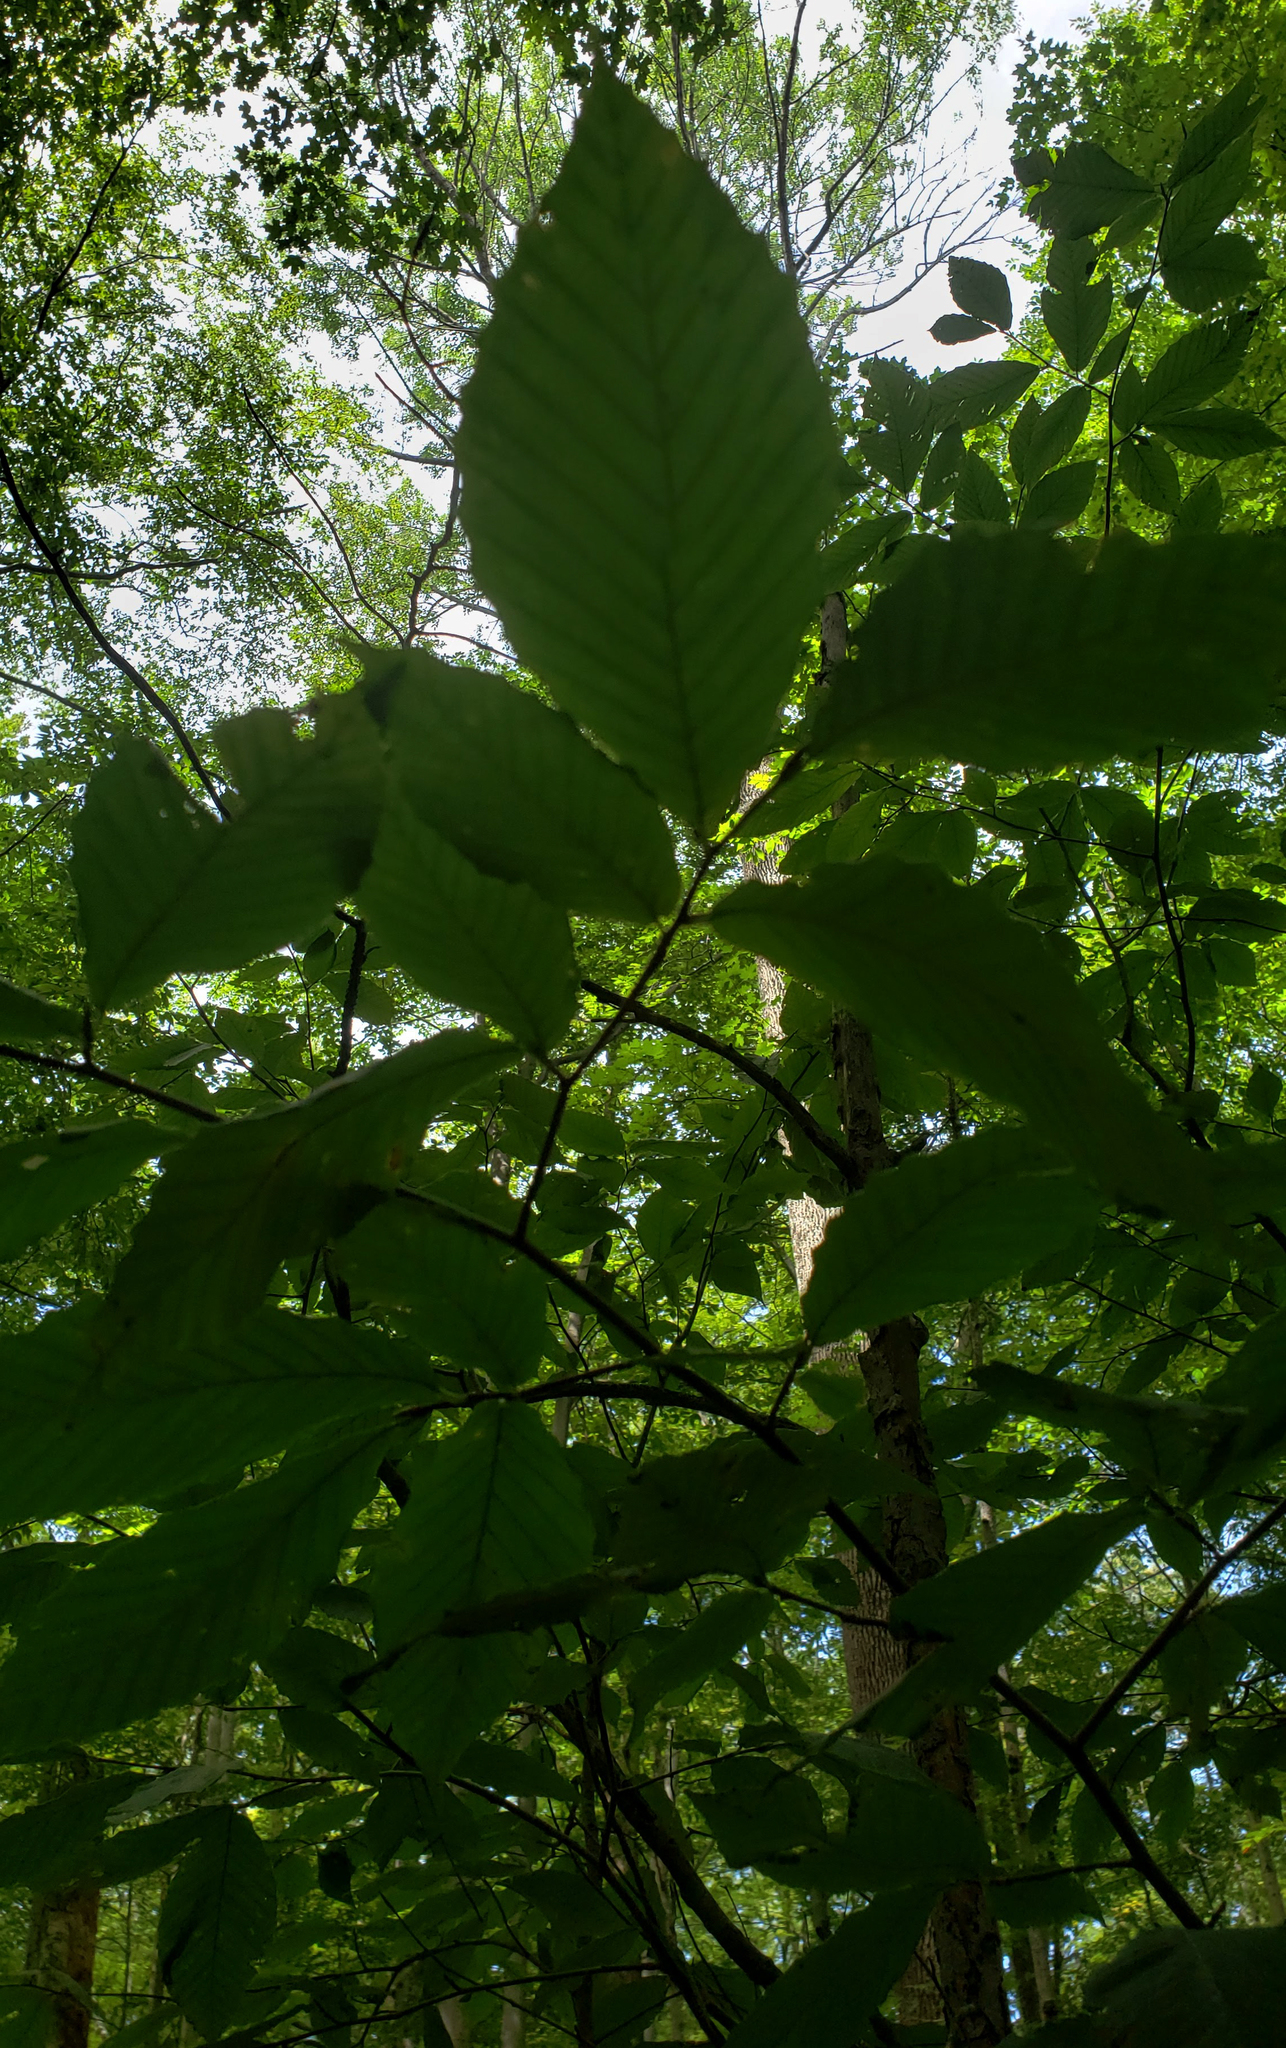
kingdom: Plantae
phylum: Tracheophyta
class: Magnoliopsida
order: Fagales
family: Fagaceae
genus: Fagus
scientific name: Fagus grandifolia
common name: American beech
